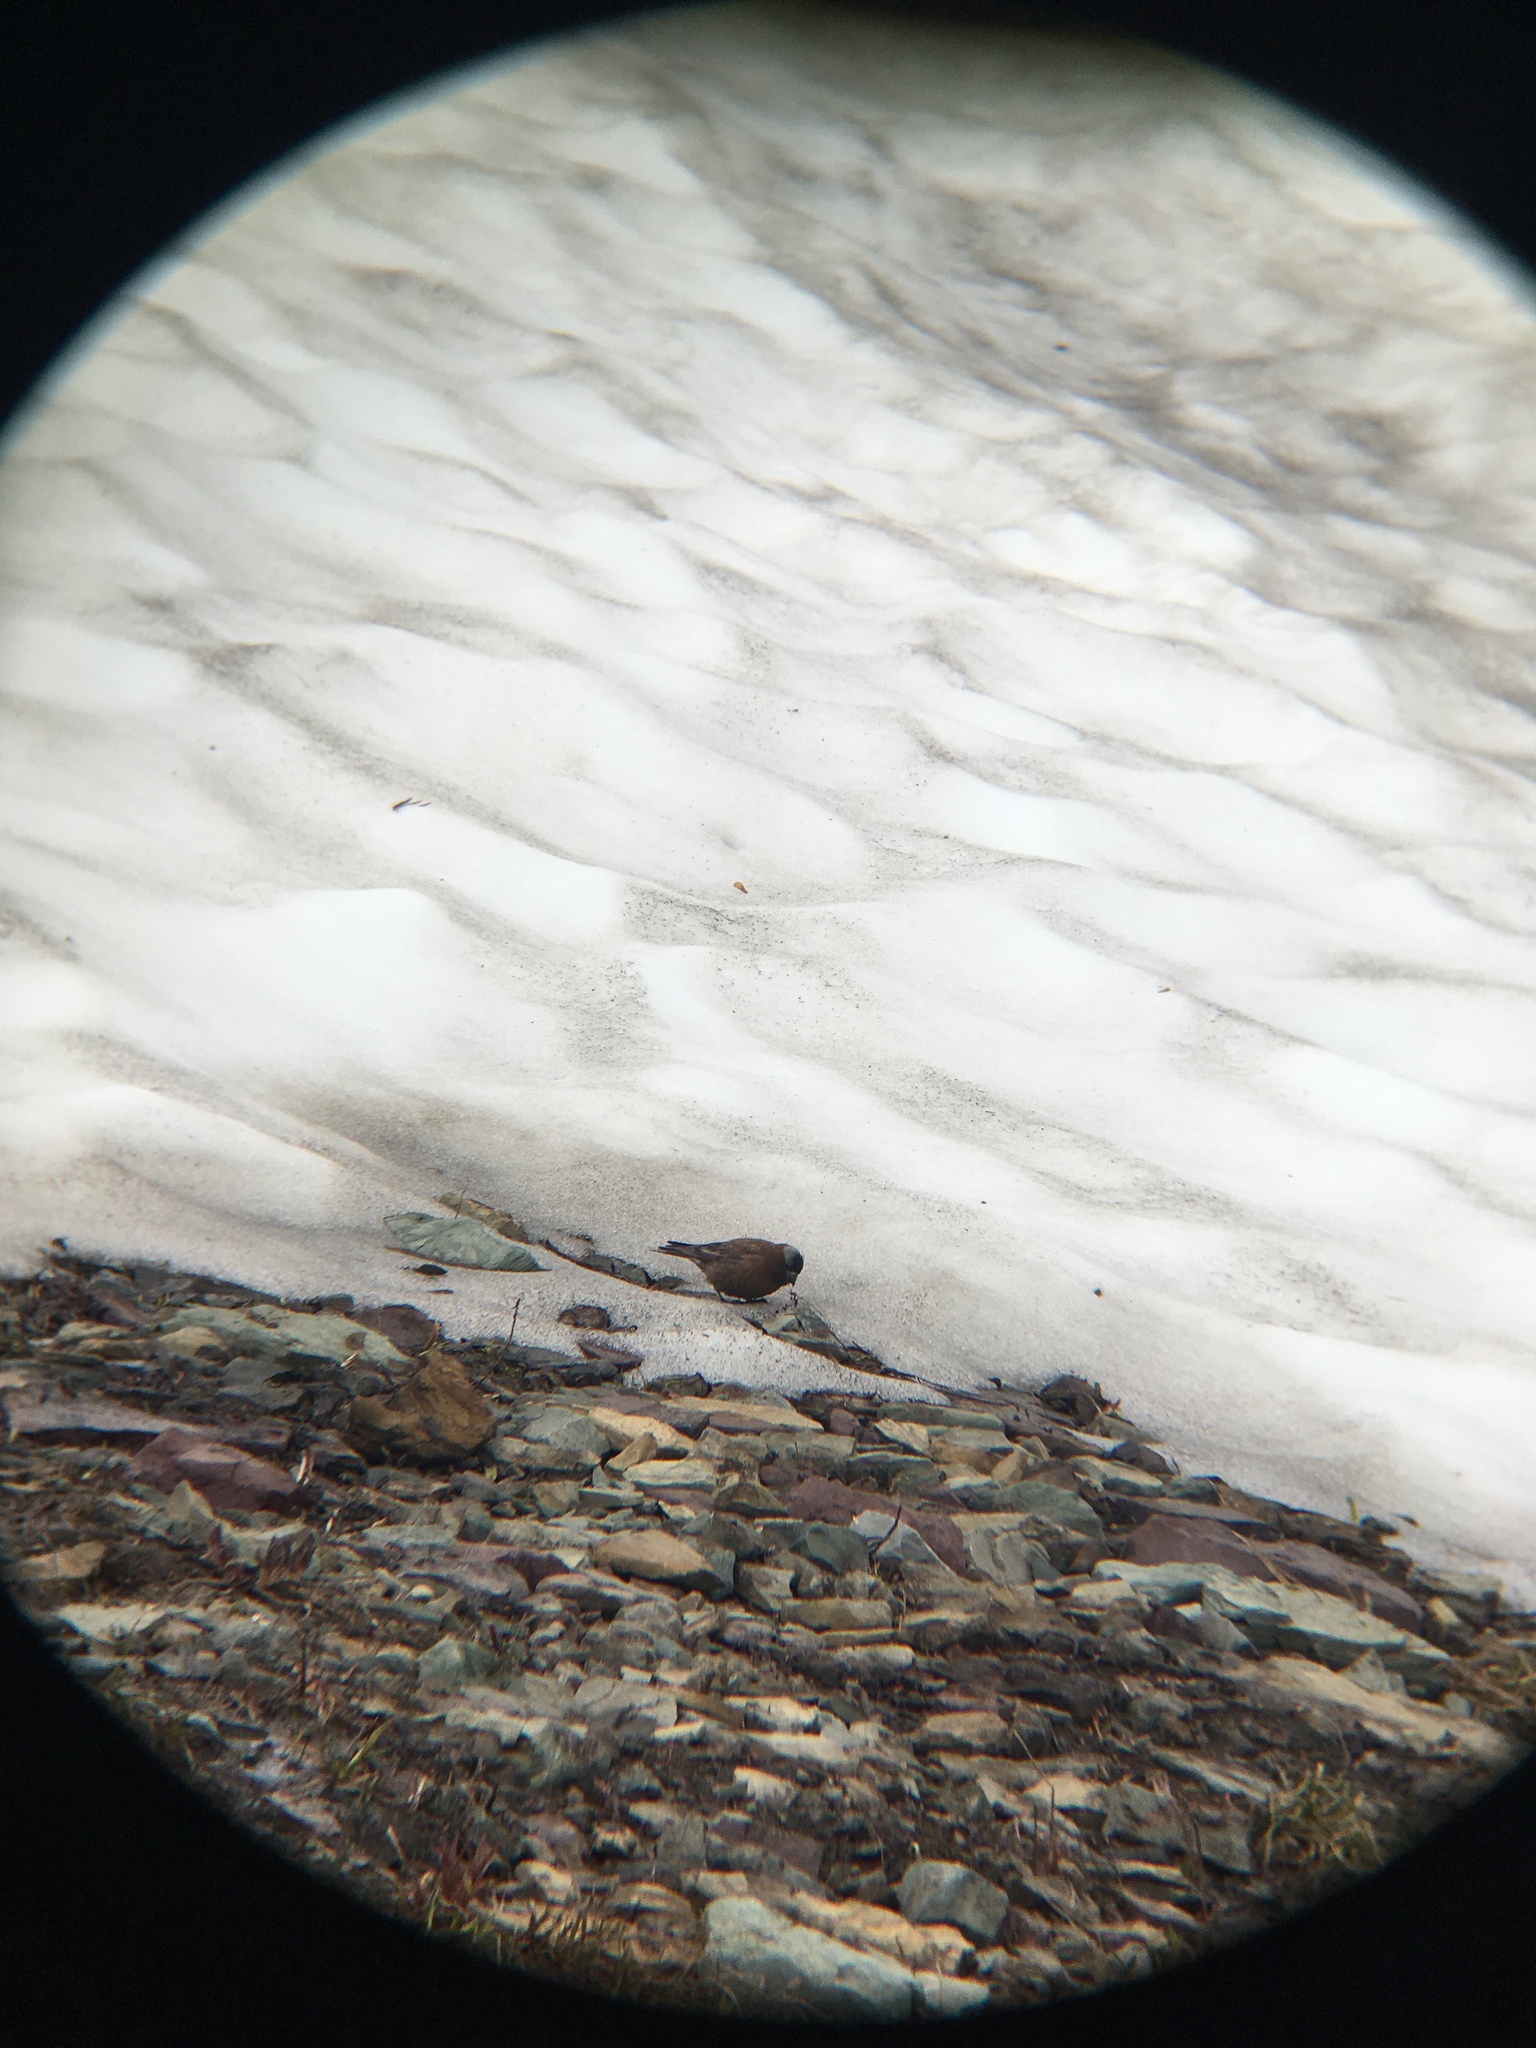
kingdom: Animalia
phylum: Chordata
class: Aves
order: Passeriformes
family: Fringillidae
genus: Leucosticte
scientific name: Leucosticte tephrocotis
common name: Gray-crowned rosy-finch
